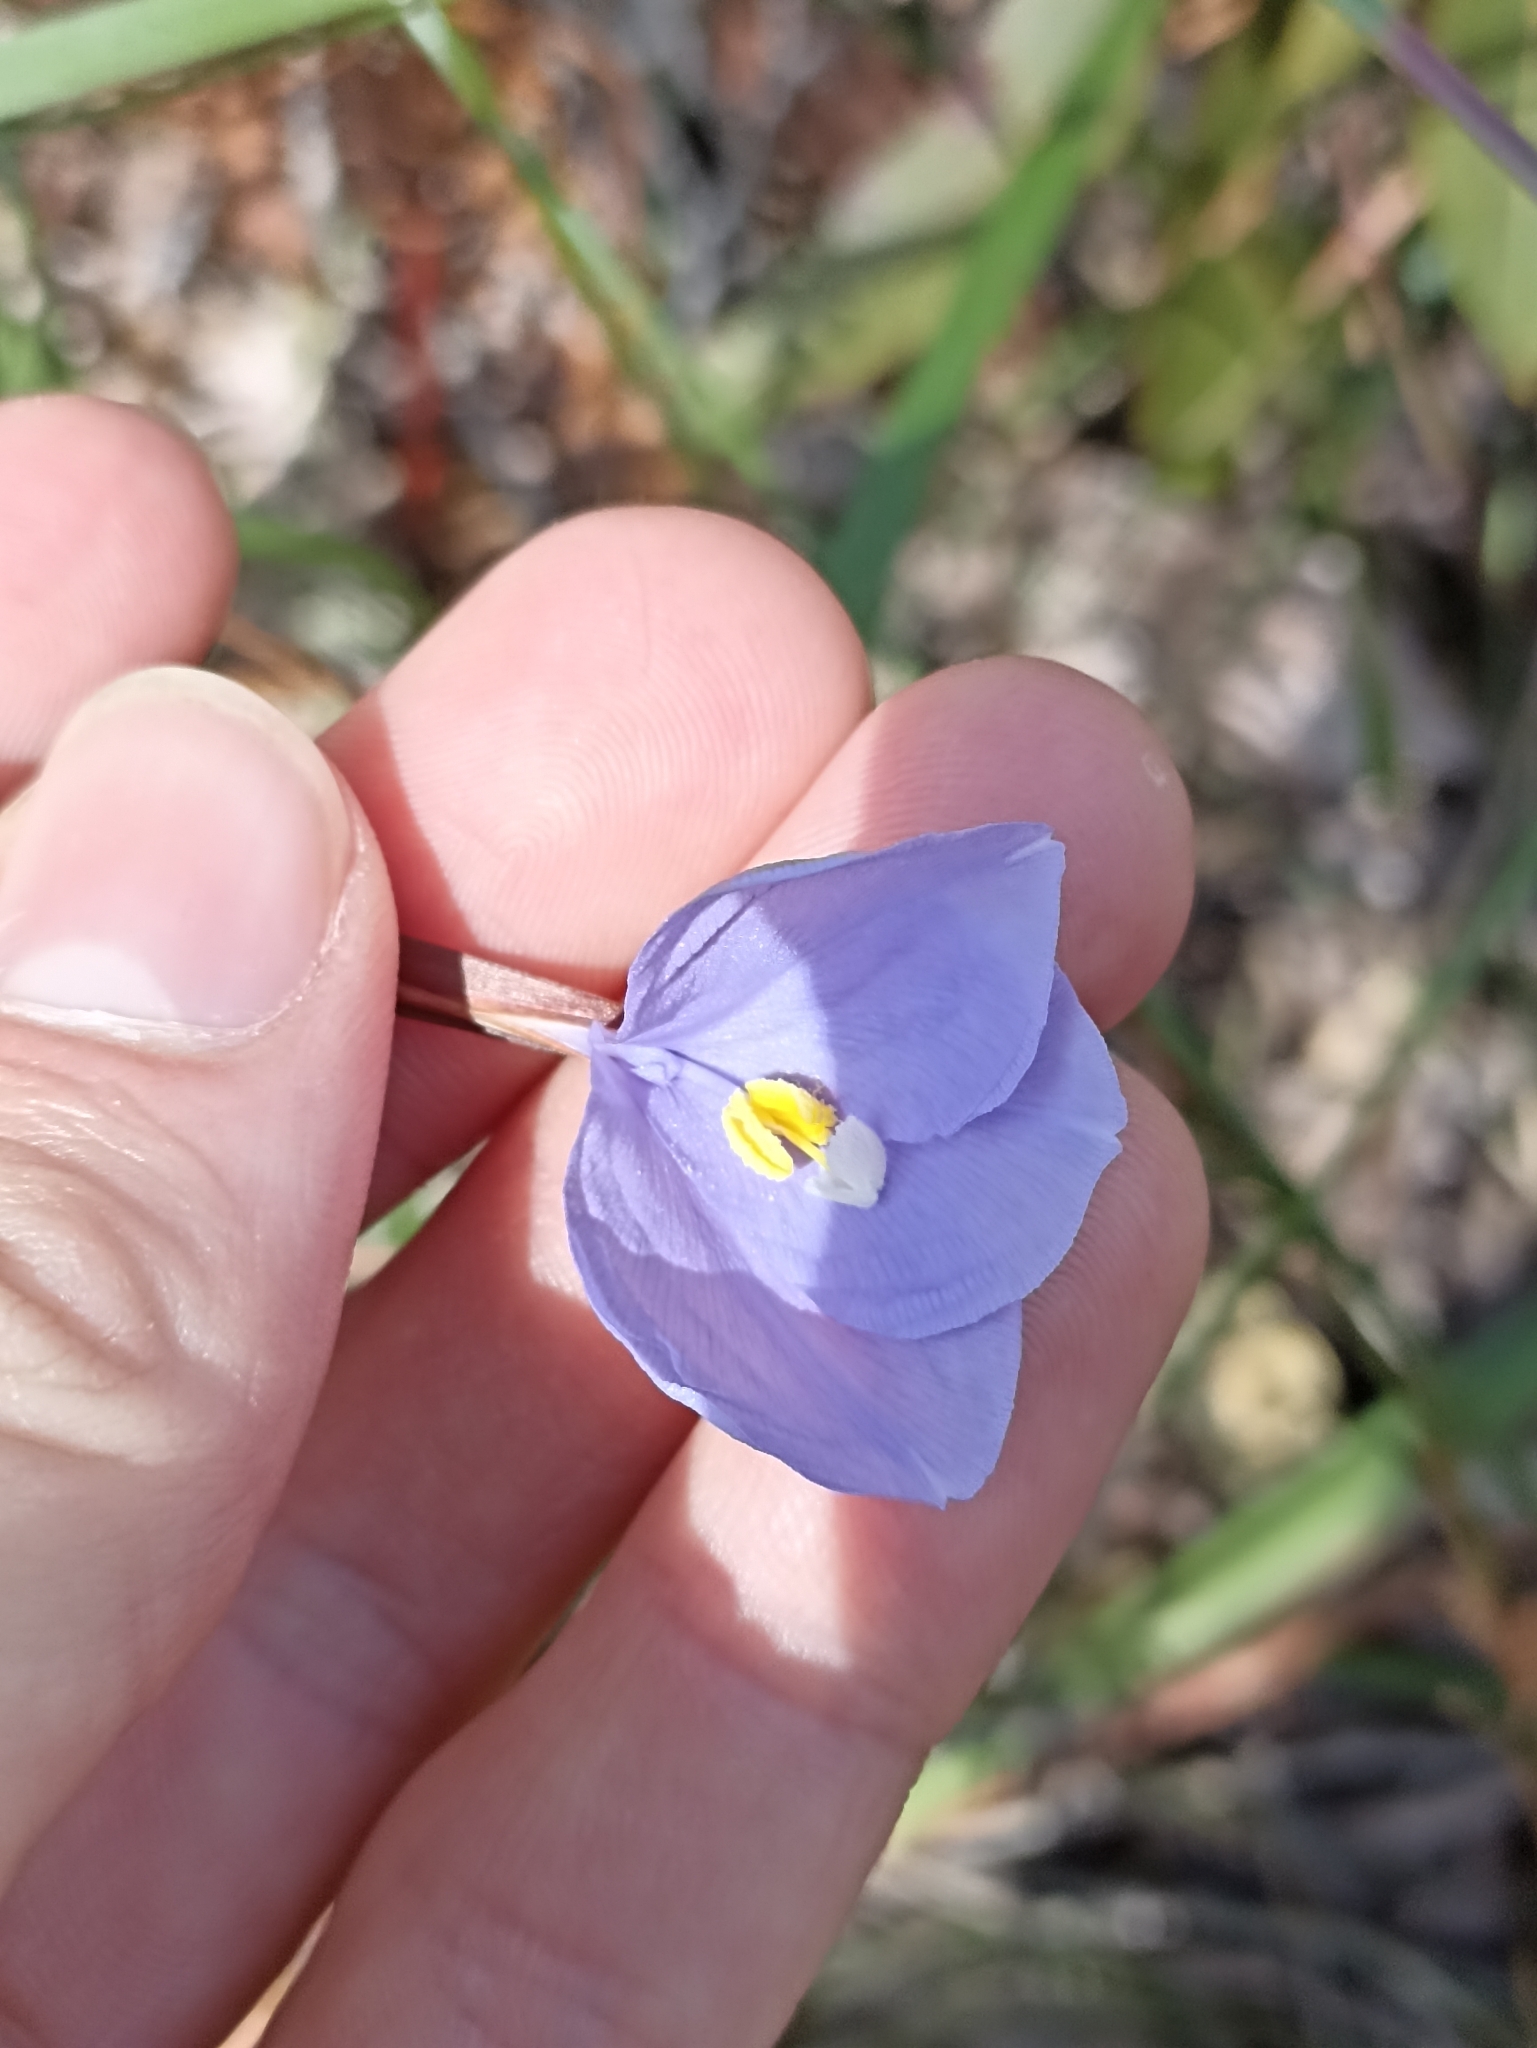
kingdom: Plantae
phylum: Tracheophyta
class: Liliopsida
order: Asparagales
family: Iridaceae
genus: Patersonia
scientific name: Patersonia glabrata
